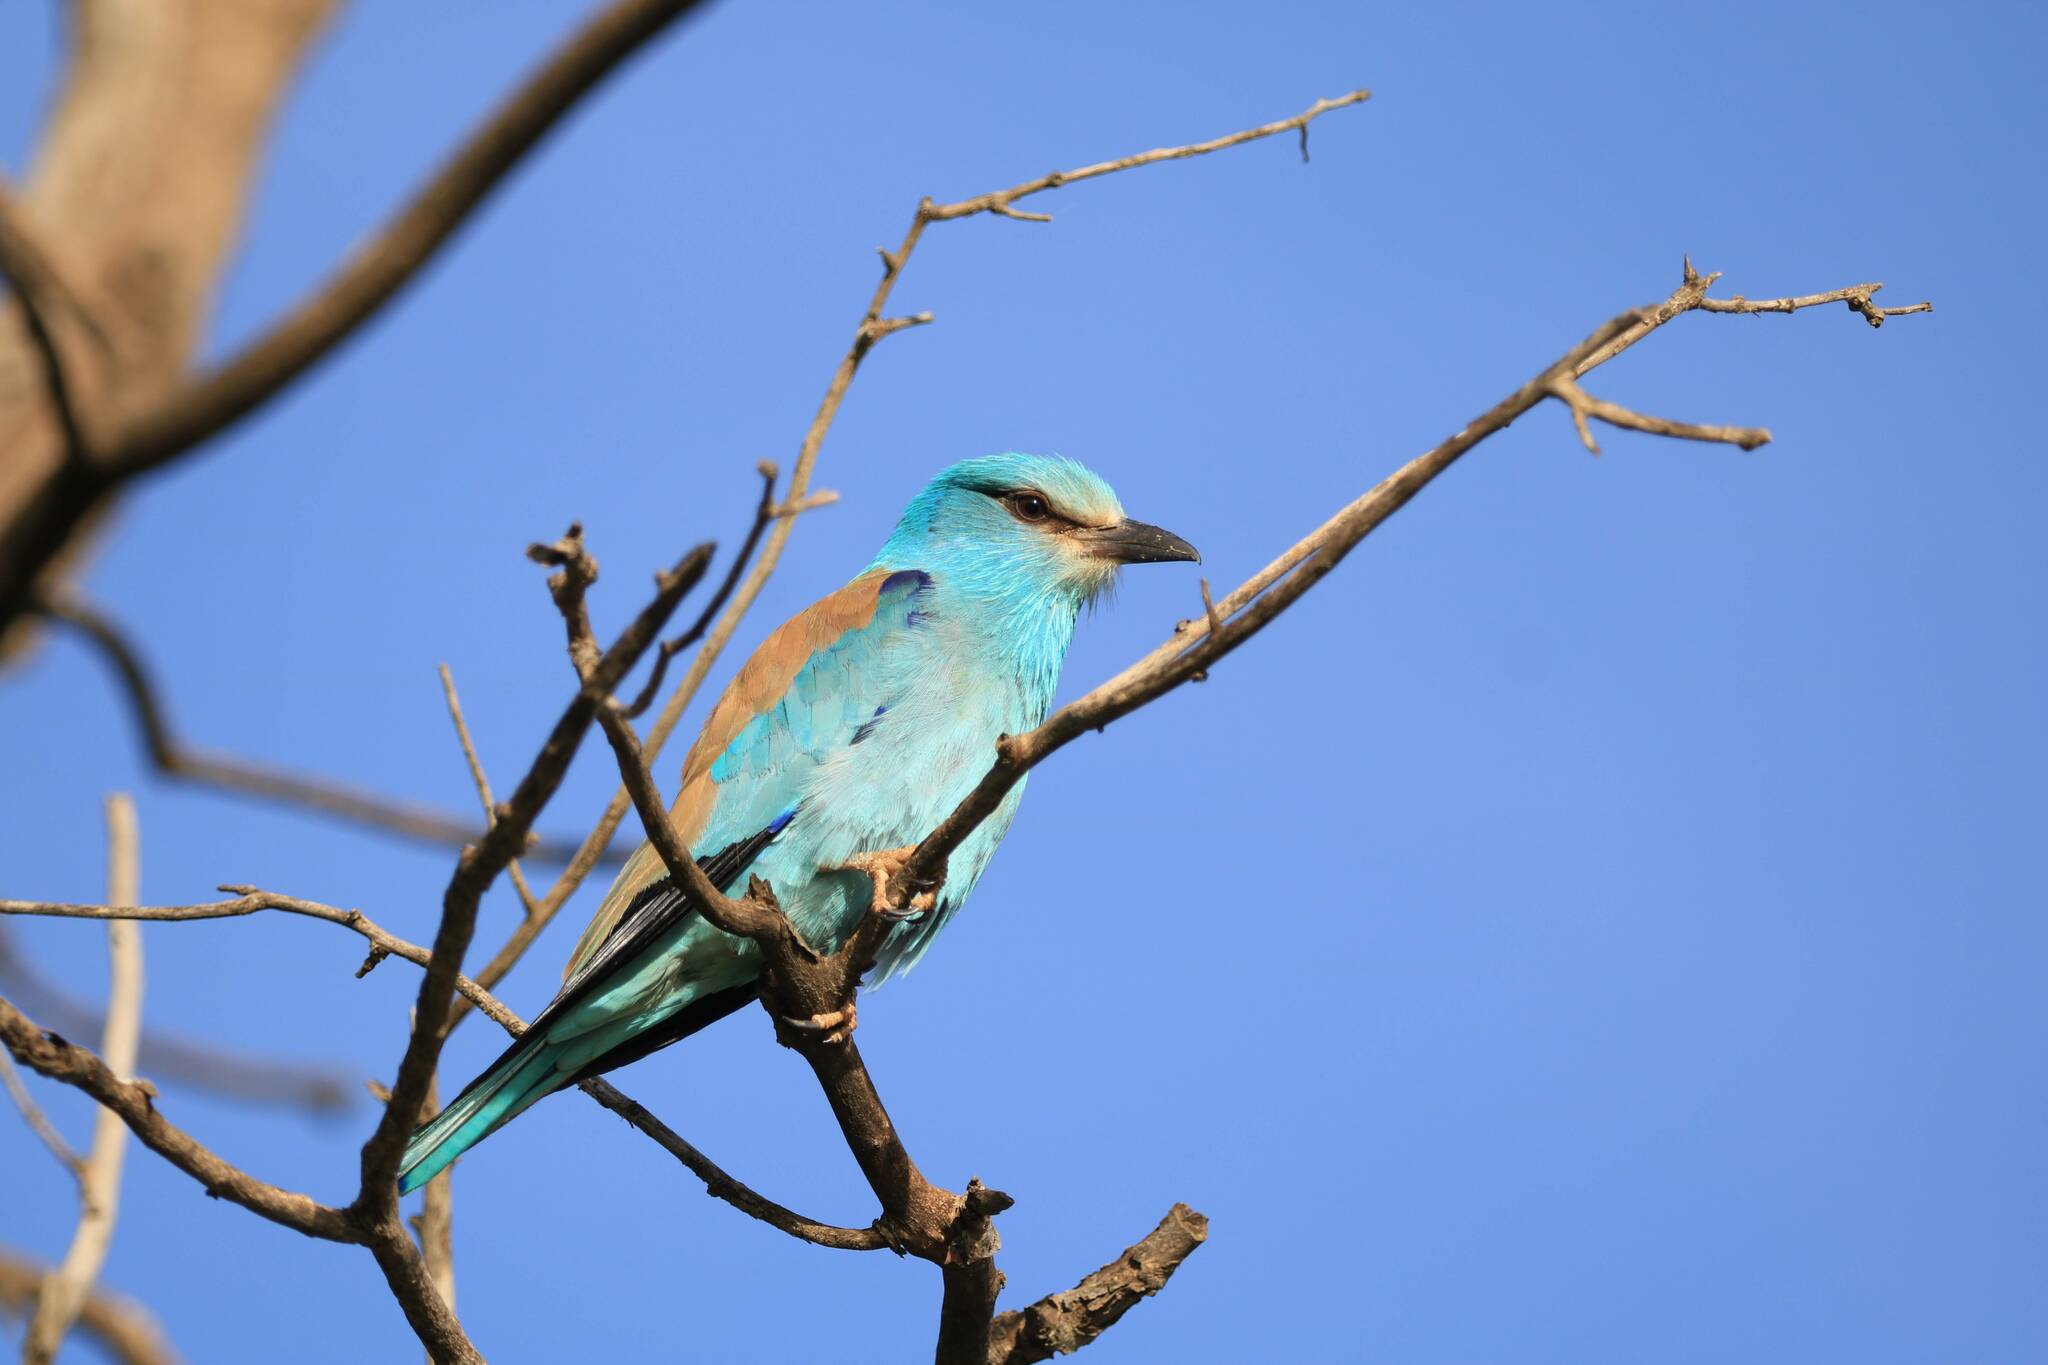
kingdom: Animalia
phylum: Chordata
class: Aves
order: Coraciiformes
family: Coraciidae
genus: Coracias
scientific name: Coracias garrulus
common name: European roller
